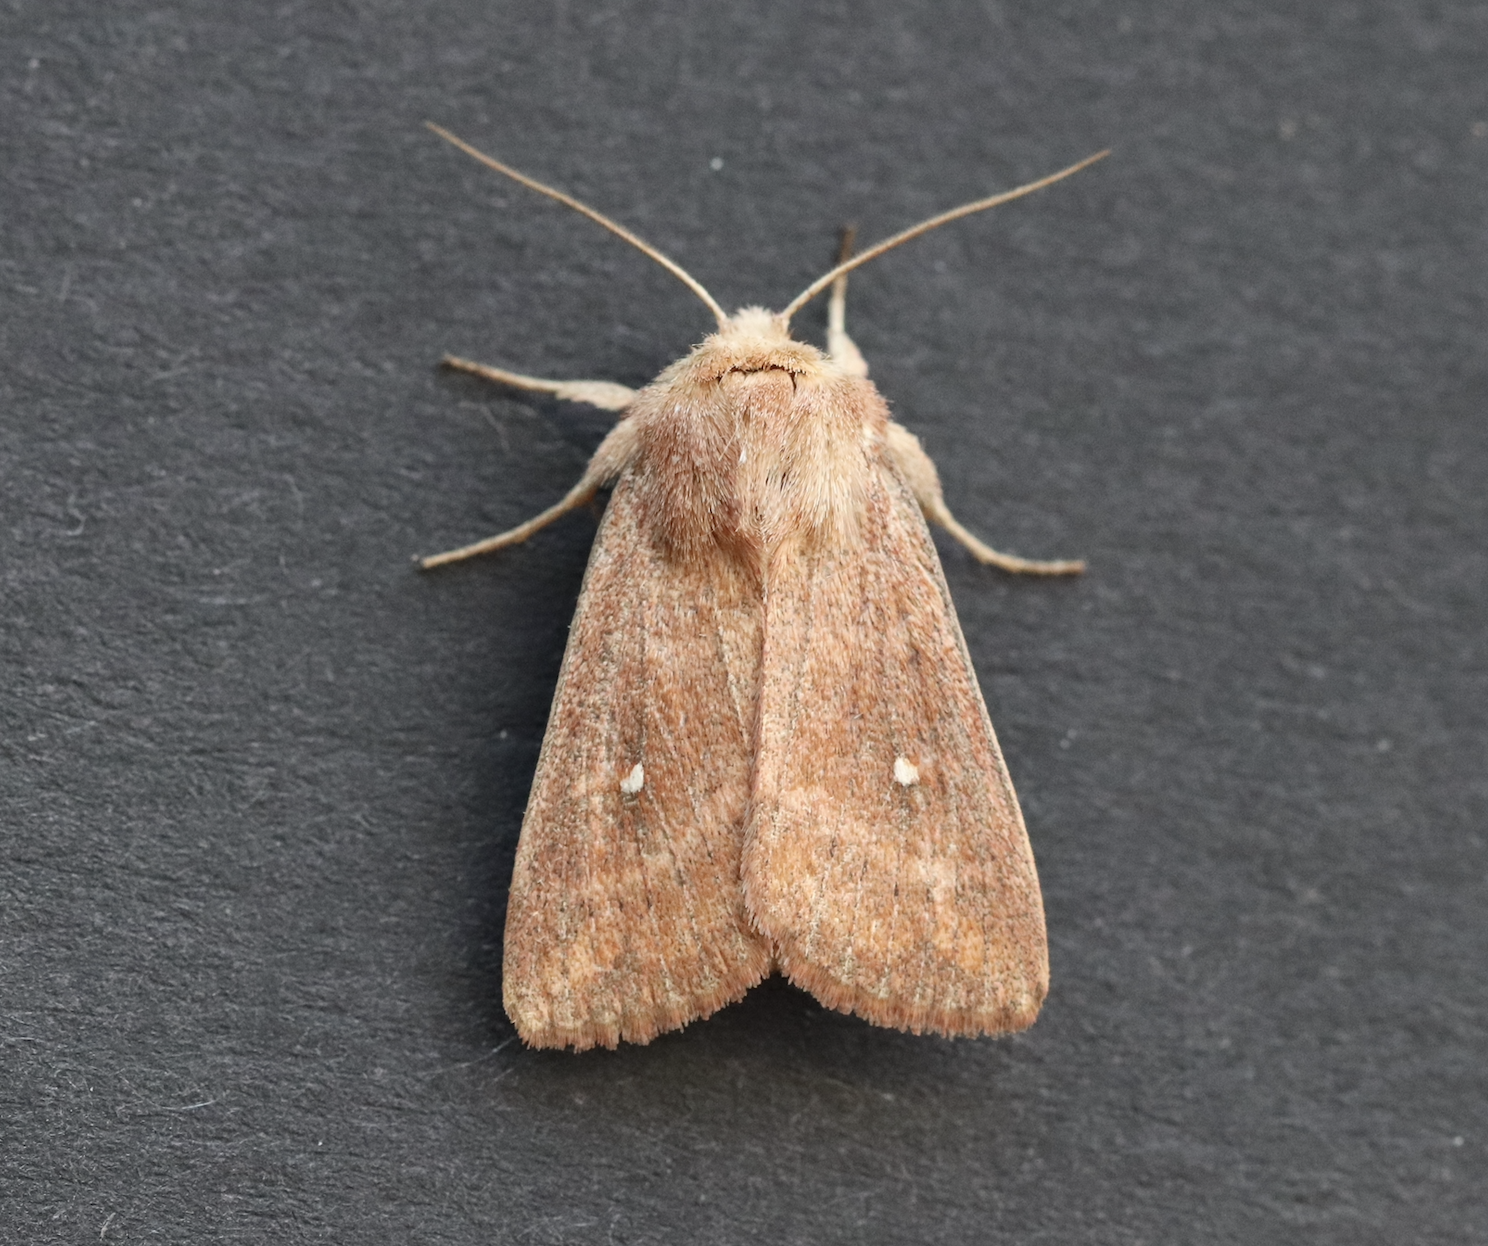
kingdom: Animalia
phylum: Arthropoda
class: Insecta
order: Lepidoptera
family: Noctuidae
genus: Mythimna
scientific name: Mythimna albipuncta
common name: White-point
